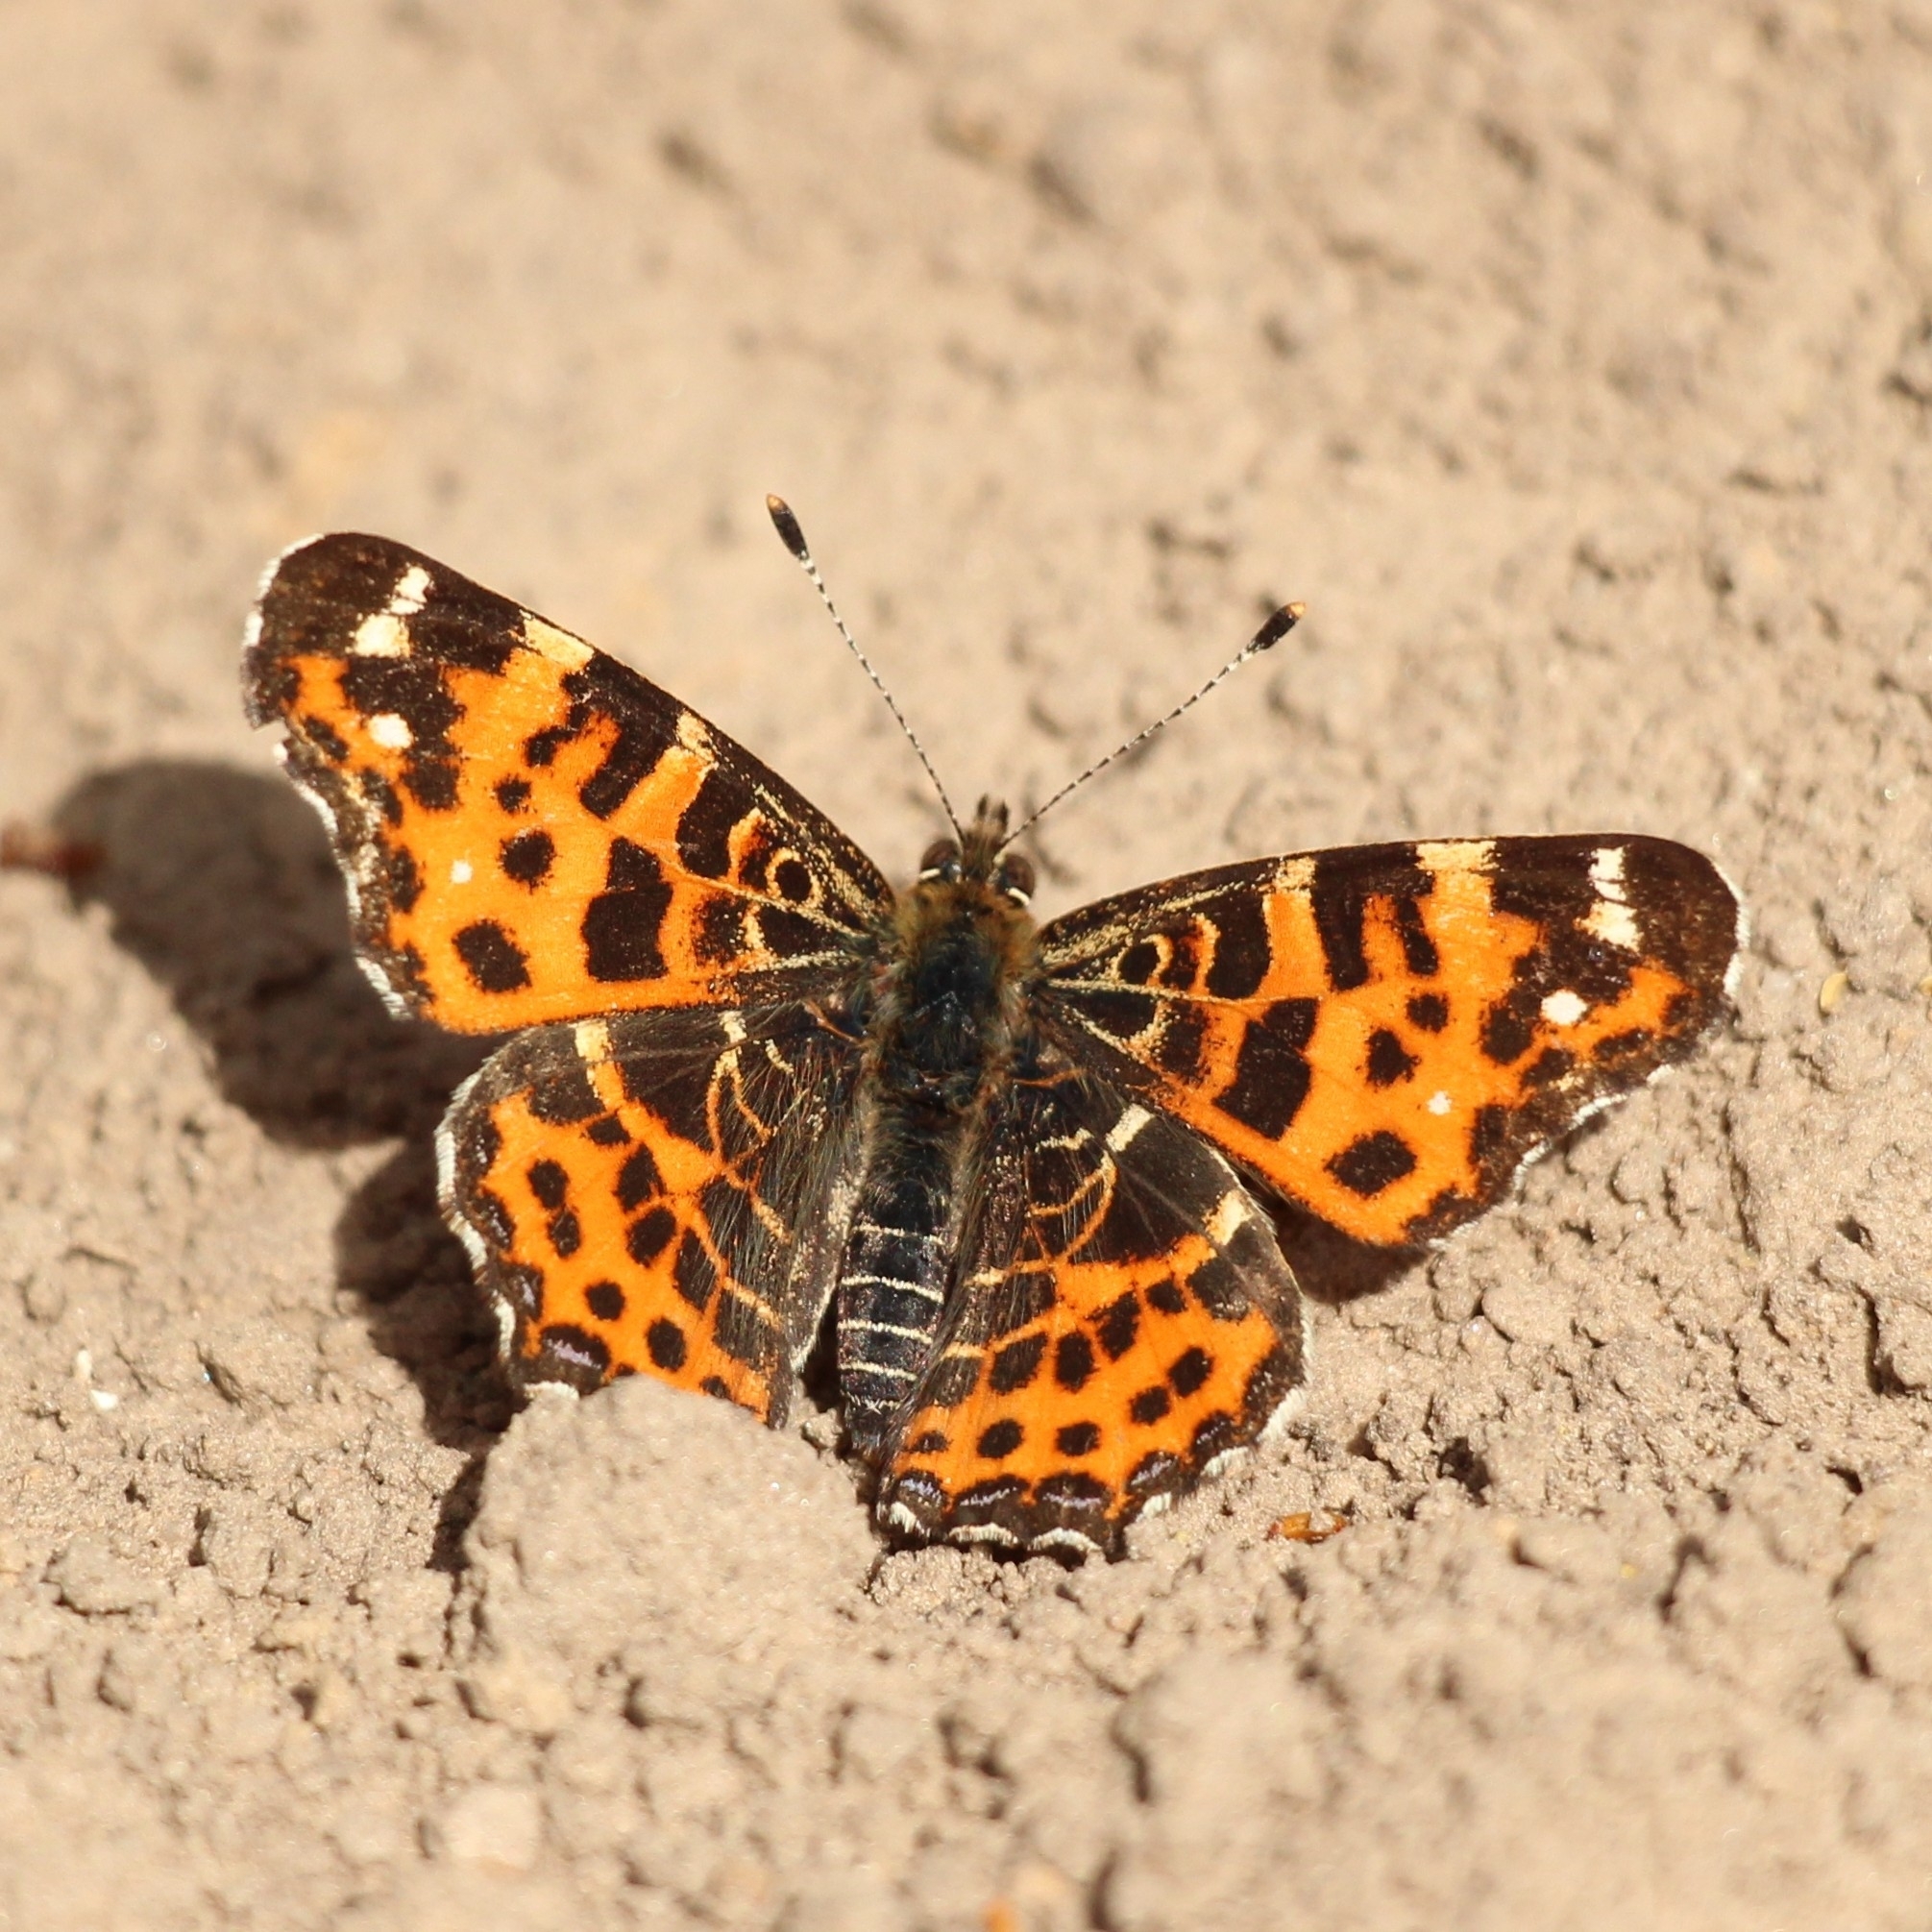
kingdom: Animalia
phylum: Arthropoda
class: Insecta
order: Lepidoptera
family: Nymphalidae
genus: Araschnia
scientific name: Araschnia levana
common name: Map butterfly
